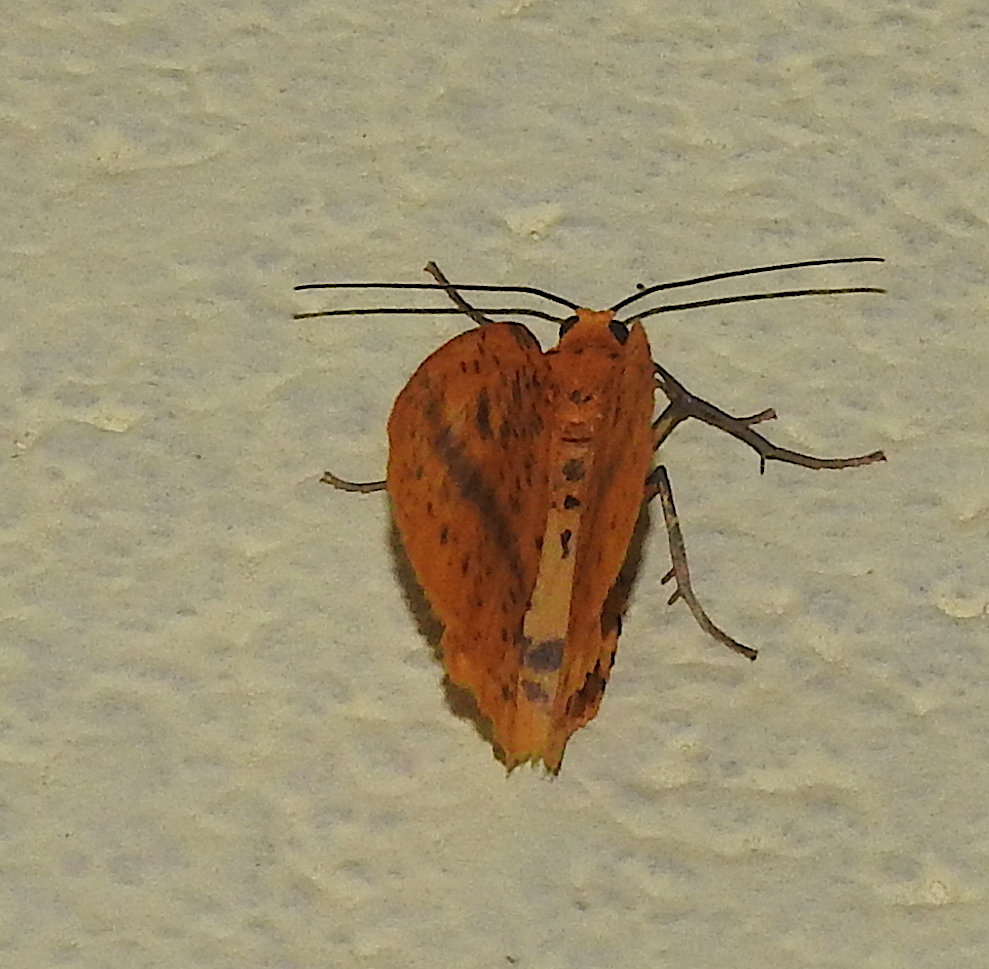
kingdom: Animalia
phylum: Arthropoda
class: Insecta
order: Lepidoptera
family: Geometridae
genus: Abraxas
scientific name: Abraxas poliaria
